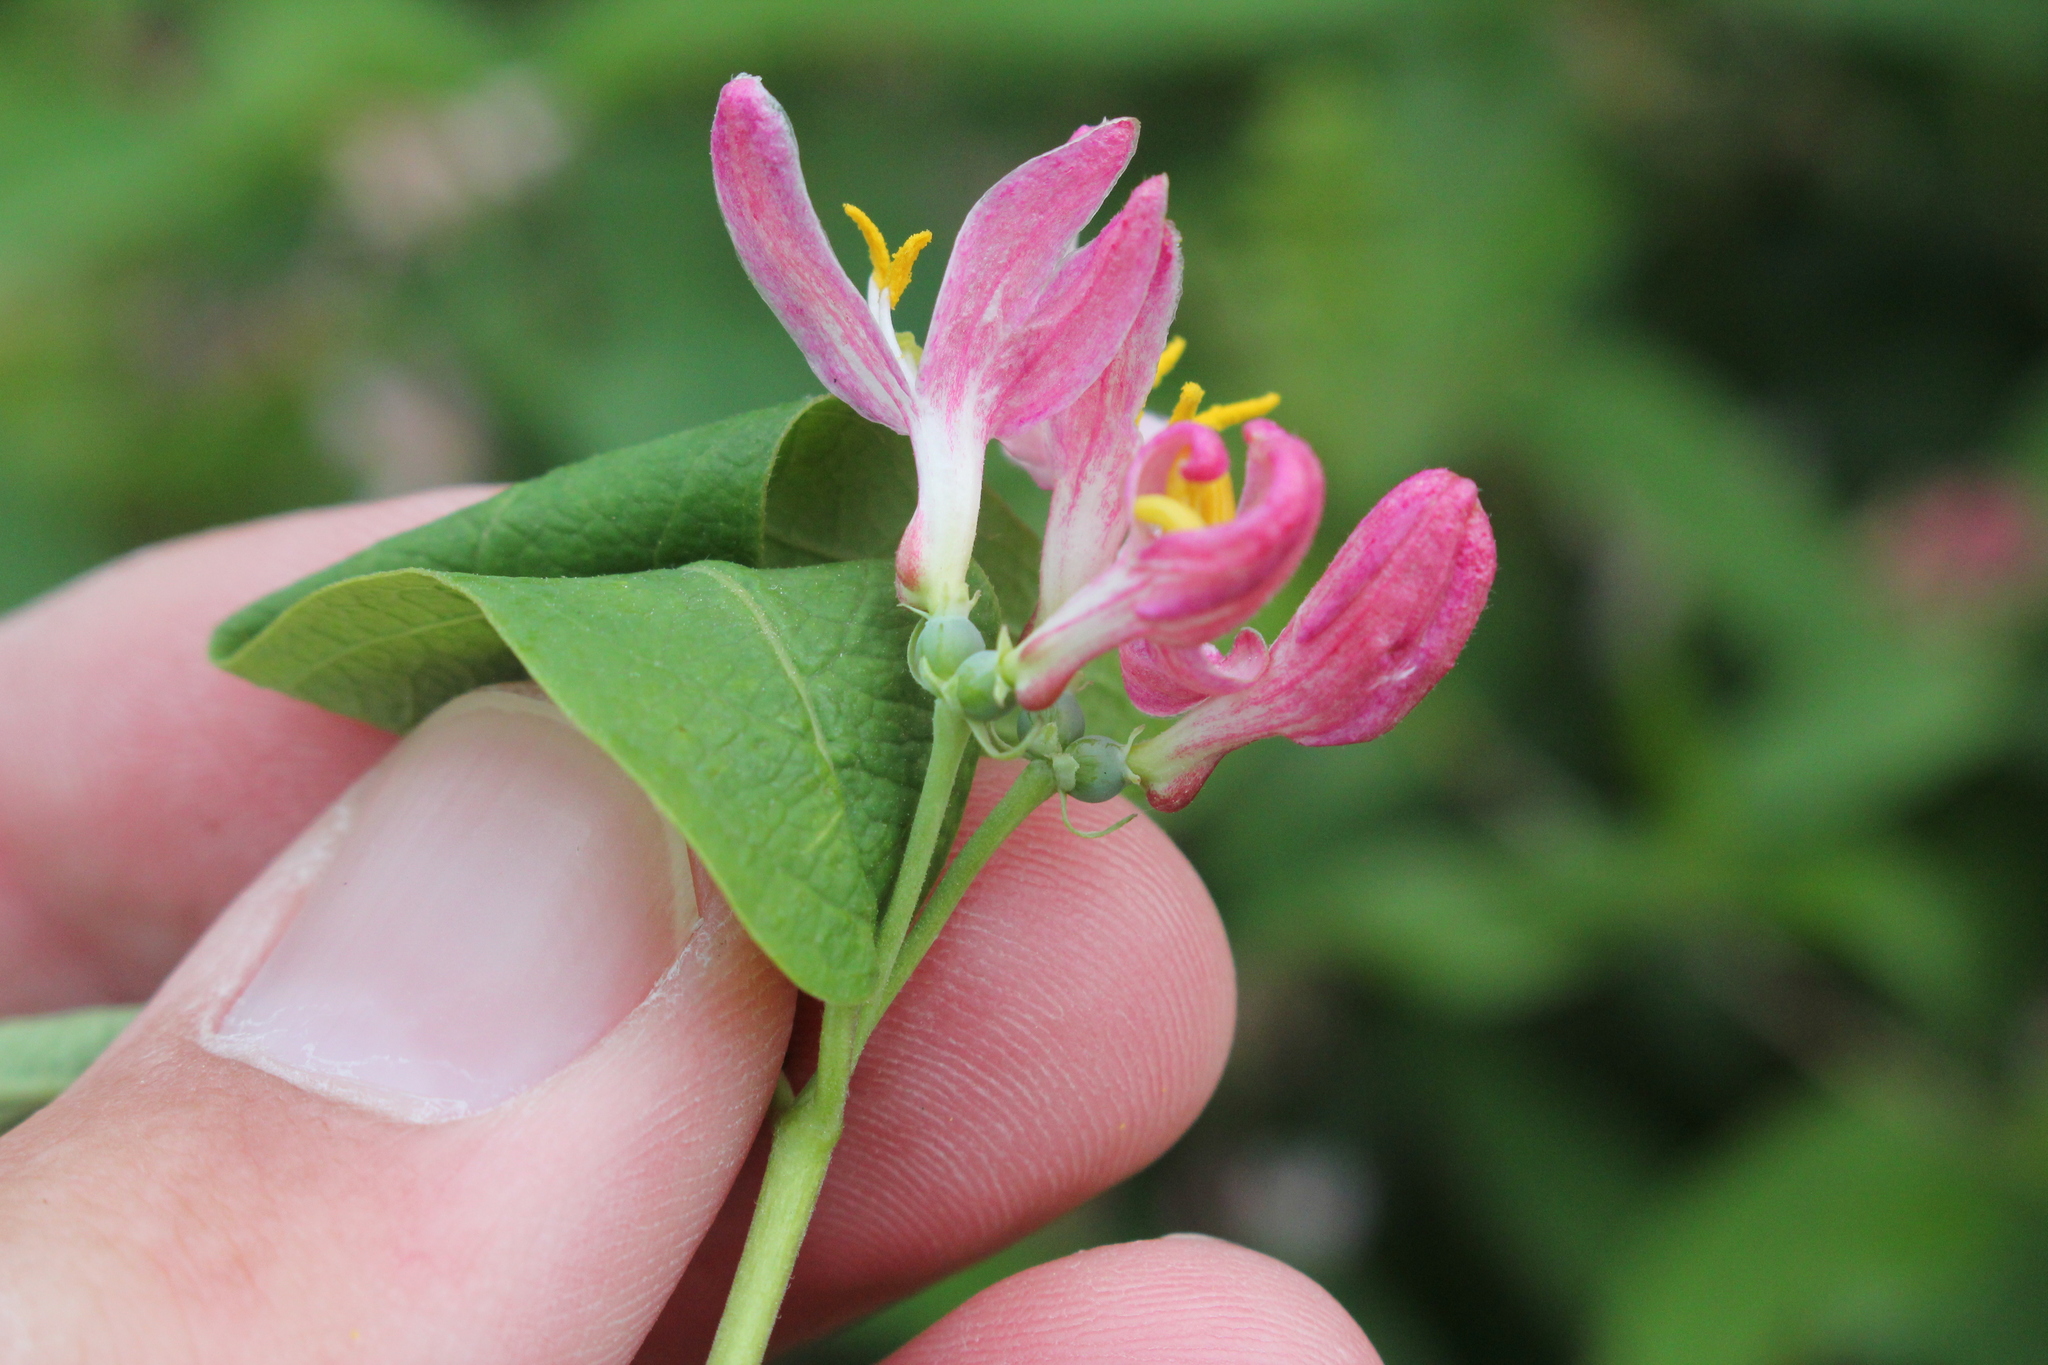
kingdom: Plantae
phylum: Tracheophyta
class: Magnoliopsida
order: Dipsacales
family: Caprifoliaceae
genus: Lonicera
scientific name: Lonicera bella
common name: Bell's honeysuckle
